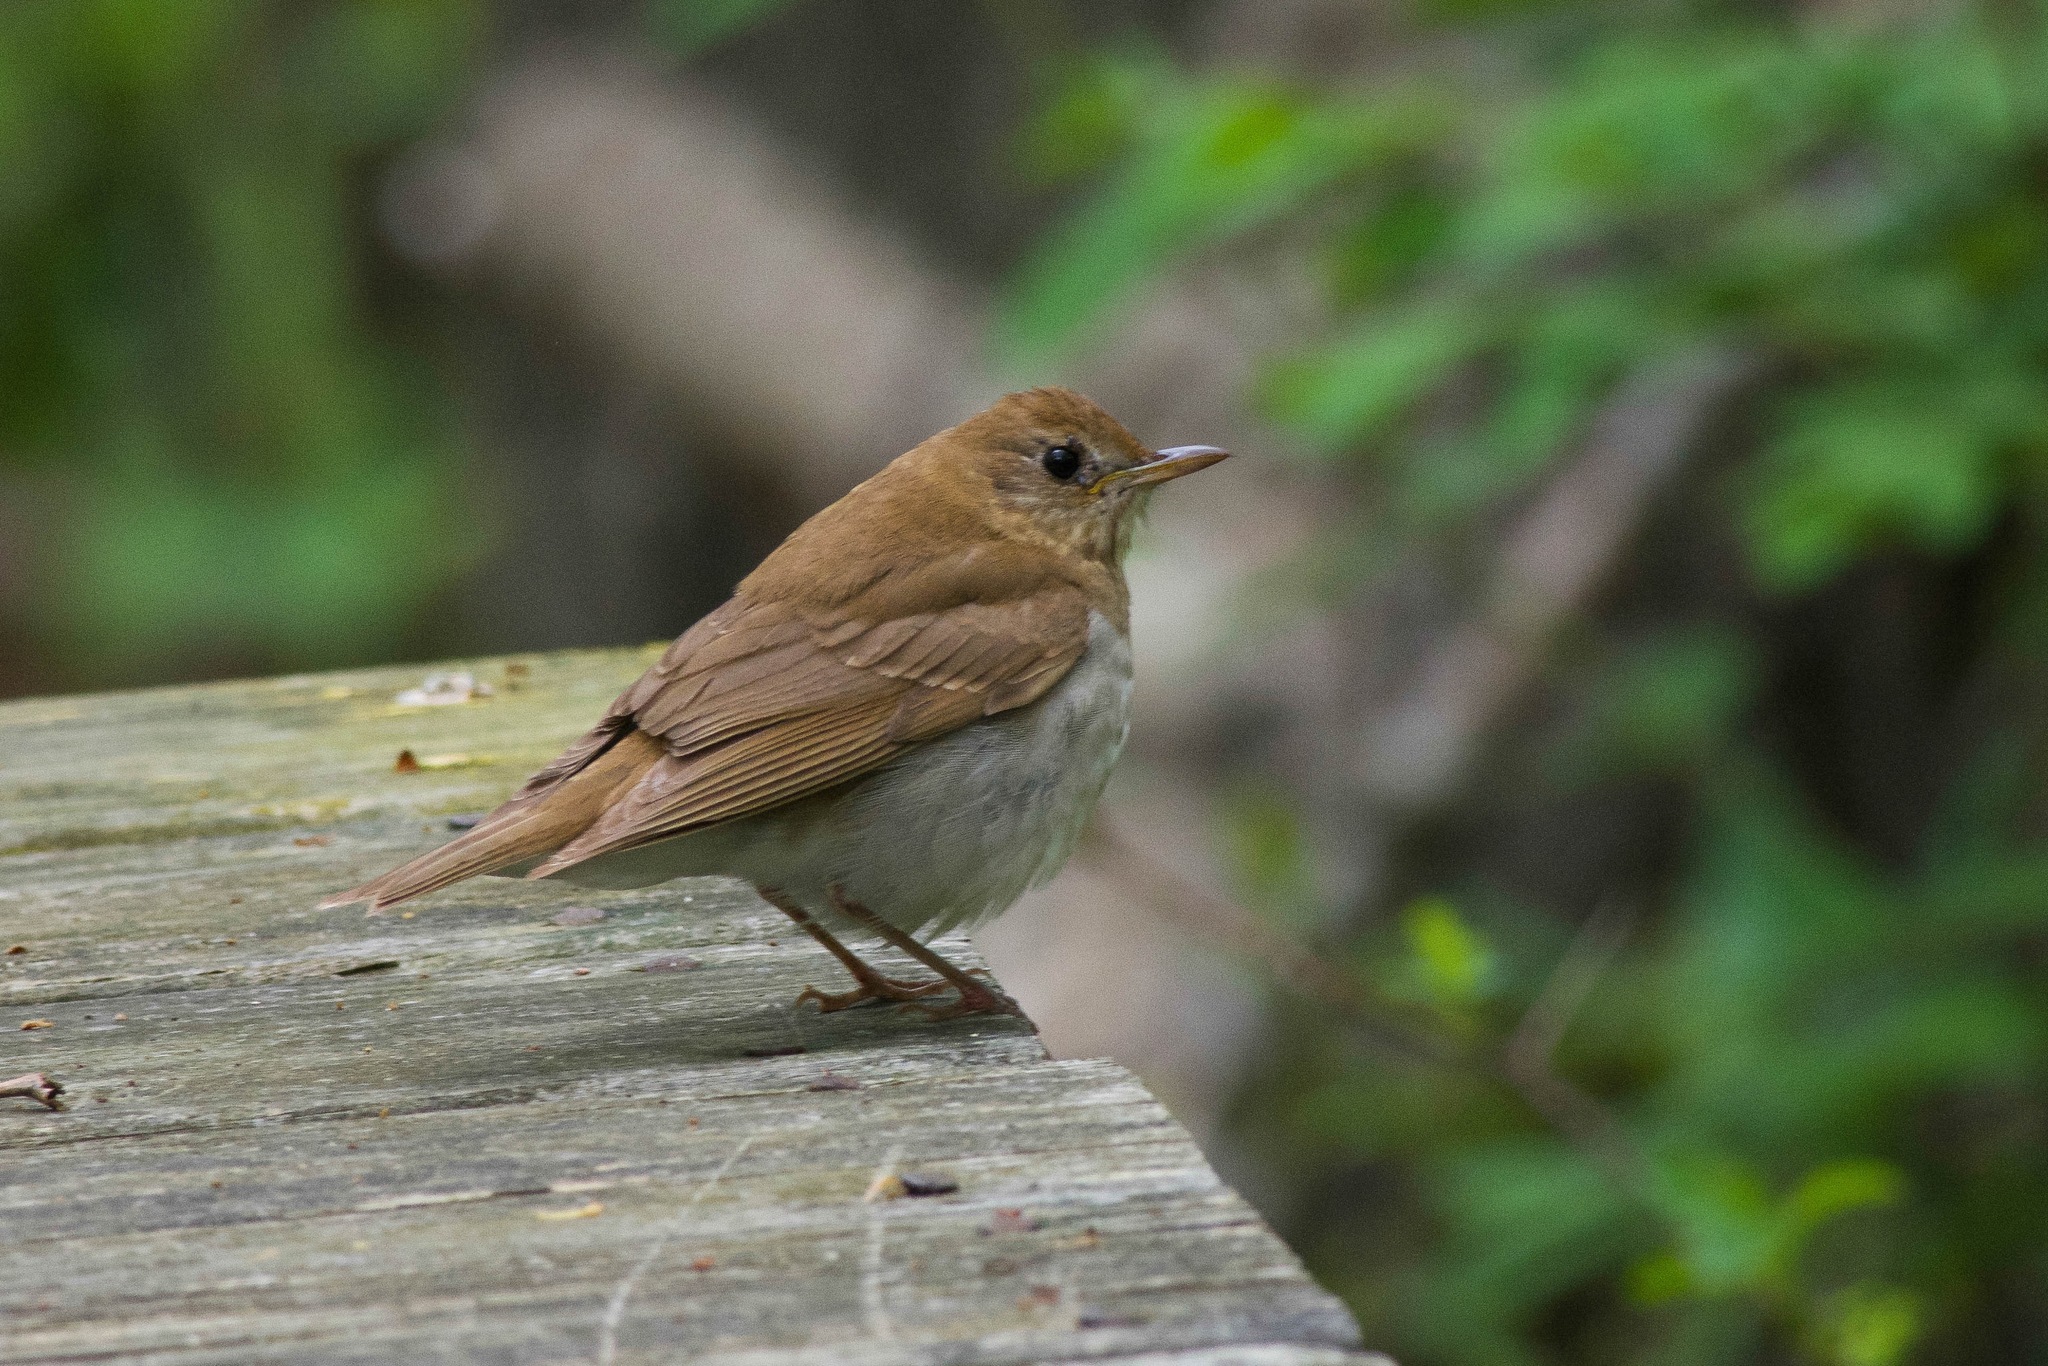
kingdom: Animalia
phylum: Chordata
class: Aves
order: Passeriformes
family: Turdidae
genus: Catharus
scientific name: Catharus fuscescens
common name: Veery
